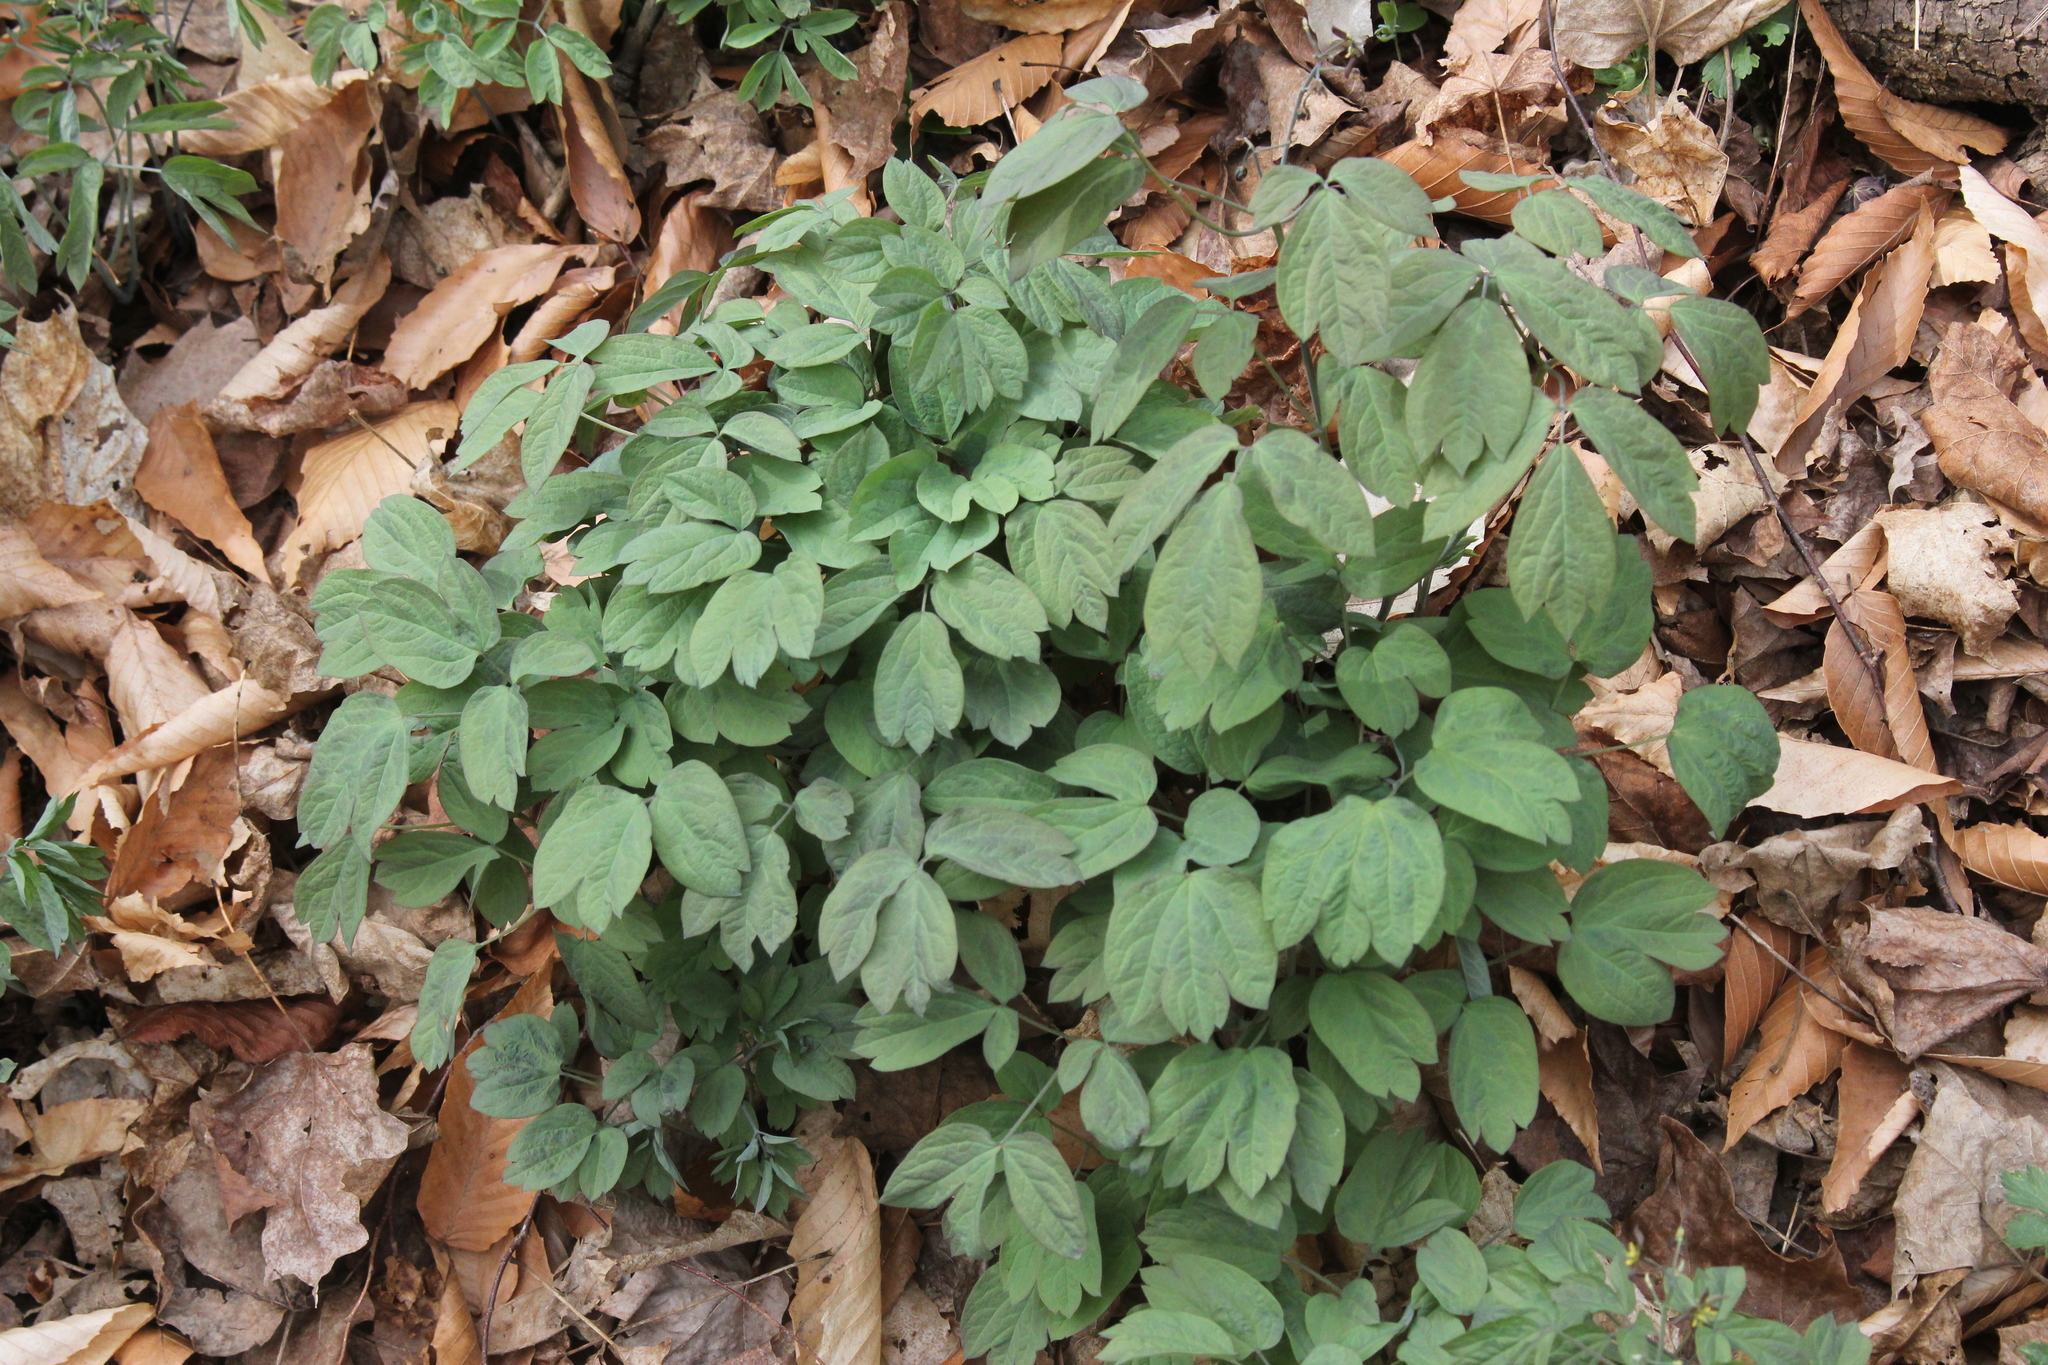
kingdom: Plantae
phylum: Tracheophyta
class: Magnoliopsida
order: Ranunculales
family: Berberidaceae
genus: Caulophyllum
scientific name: Caulophyllum giganteum
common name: Blue cohosh
